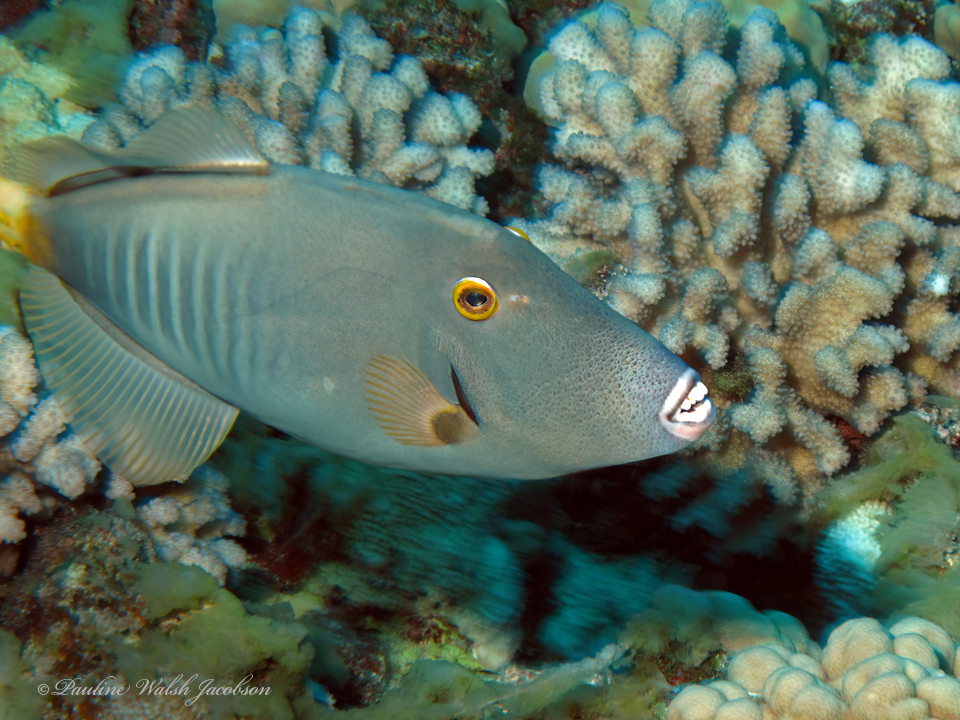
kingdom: Animalia
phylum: Chordata
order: Tetraodontiformes
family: Monacanthidae
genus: Cantherhines
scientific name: Cantherhines dumerilii
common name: Barred filefish
